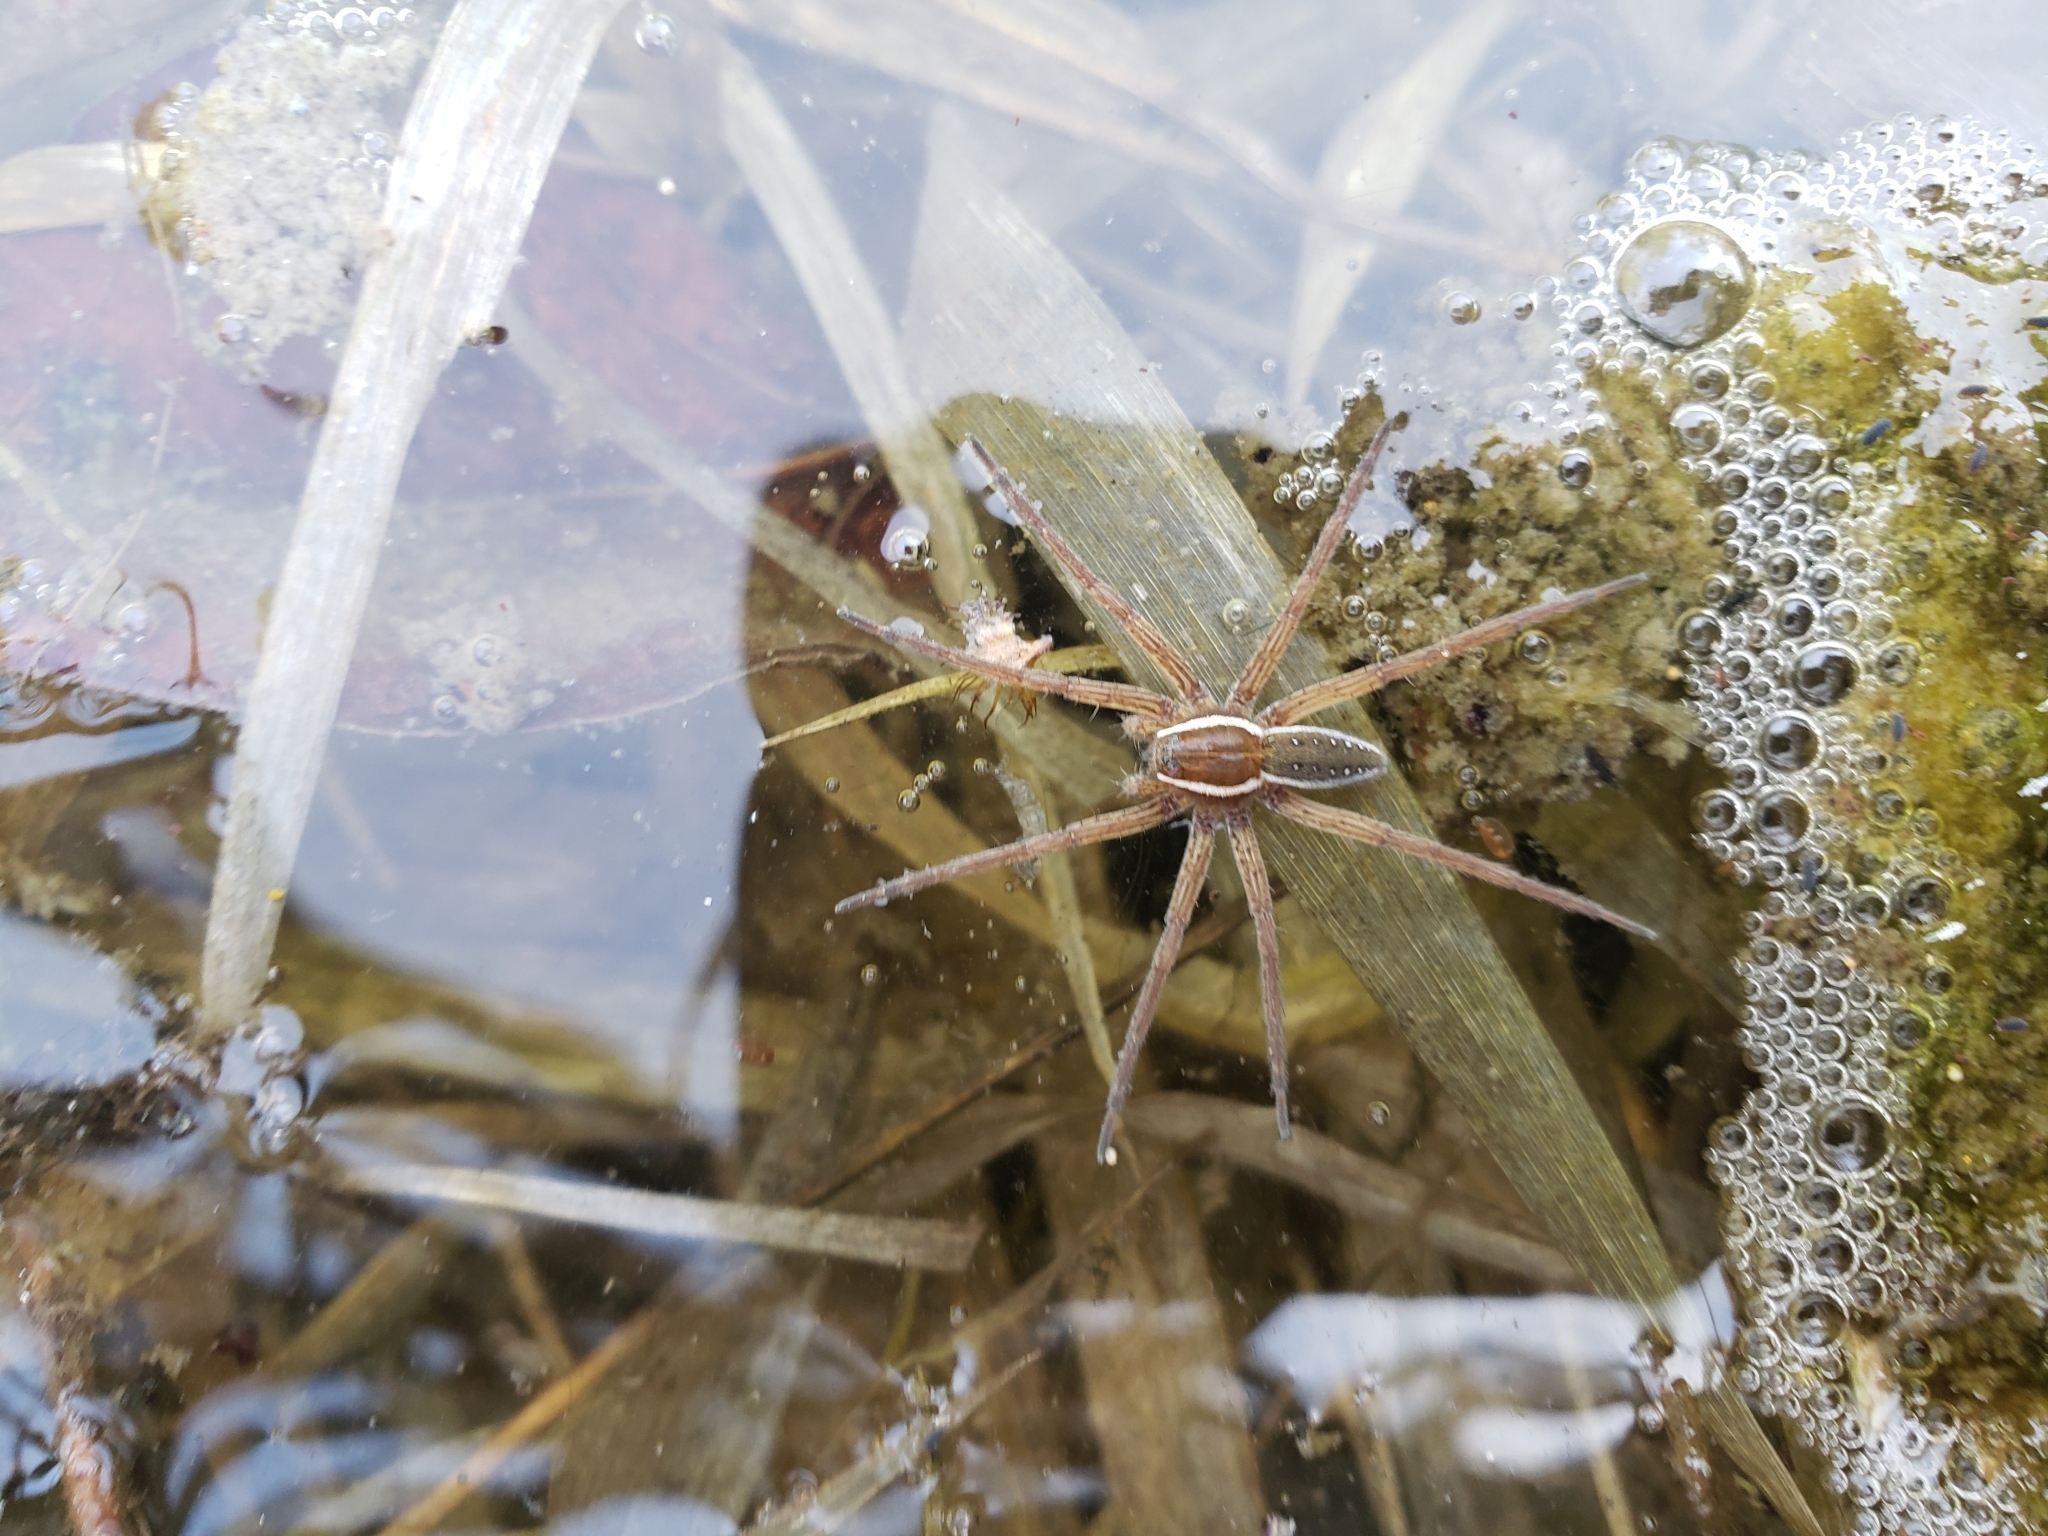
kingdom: Animalia
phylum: Arthropoda
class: Arachnida
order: Araneae
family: Pisauridae
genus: Dolomedes
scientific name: Dolomedes triton
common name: Six-spotted fishing spider
